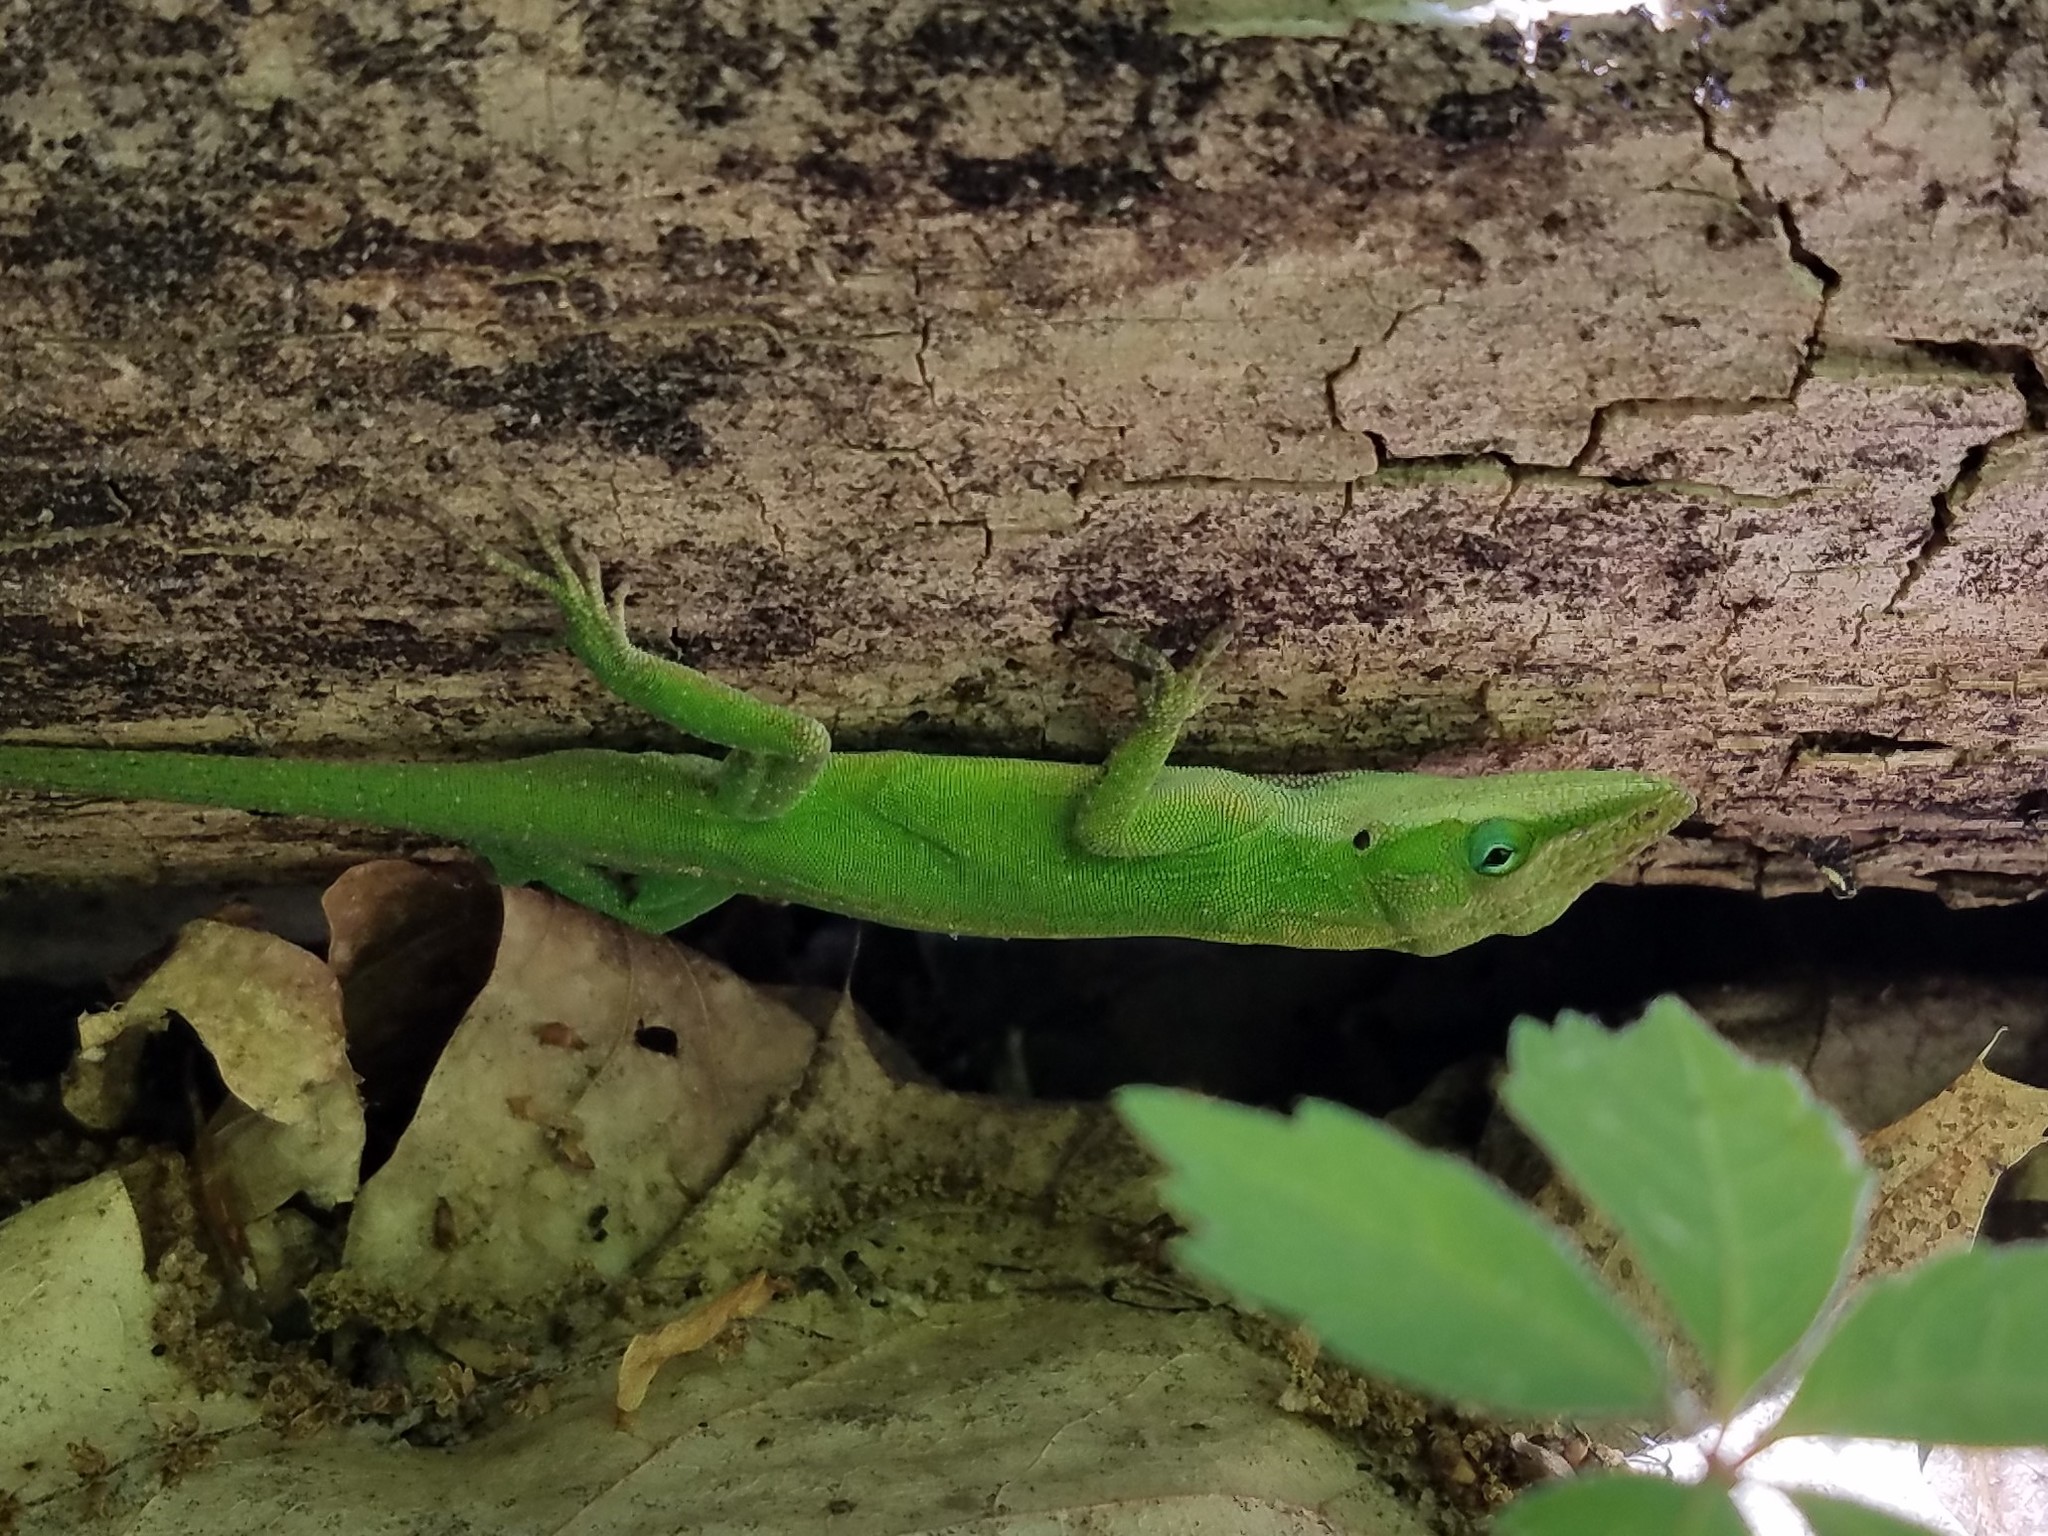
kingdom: Animalia
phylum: Chordata
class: Squamata
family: Dactyloidae
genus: Anolis
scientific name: Anolis carolinensis
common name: Green anole
